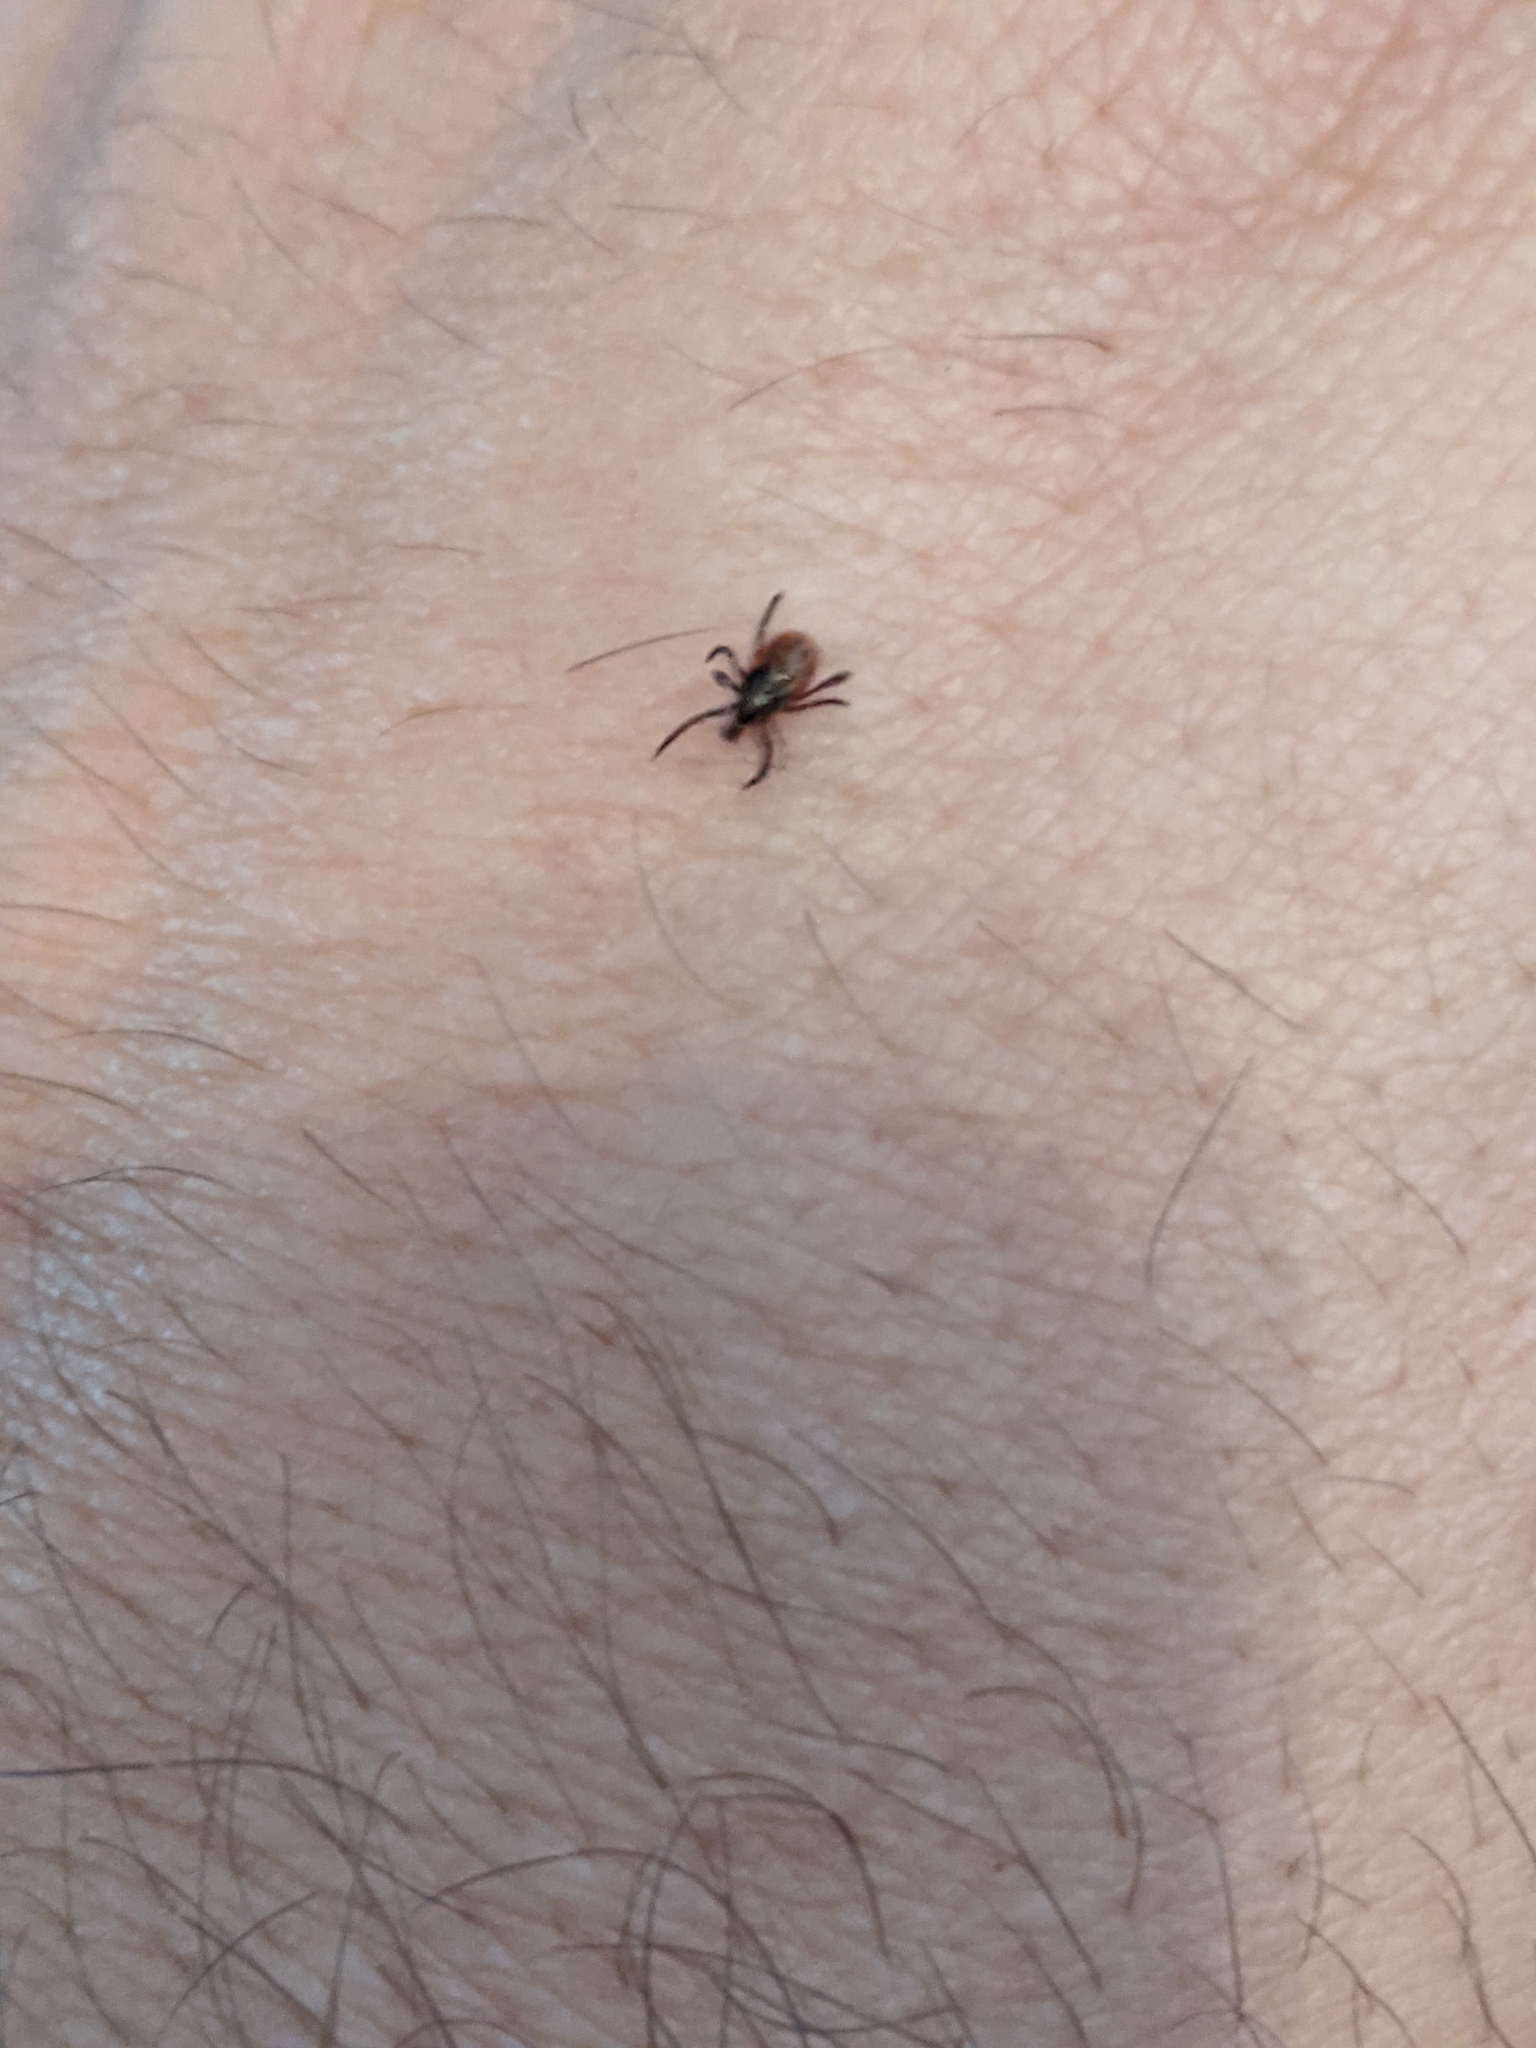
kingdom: Animalia
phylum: Arthropoda
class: Arachnida
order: Ixodida
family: Ixodidae
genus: Ixodes
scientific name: Ixodes scapularis
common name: Black legged tick
